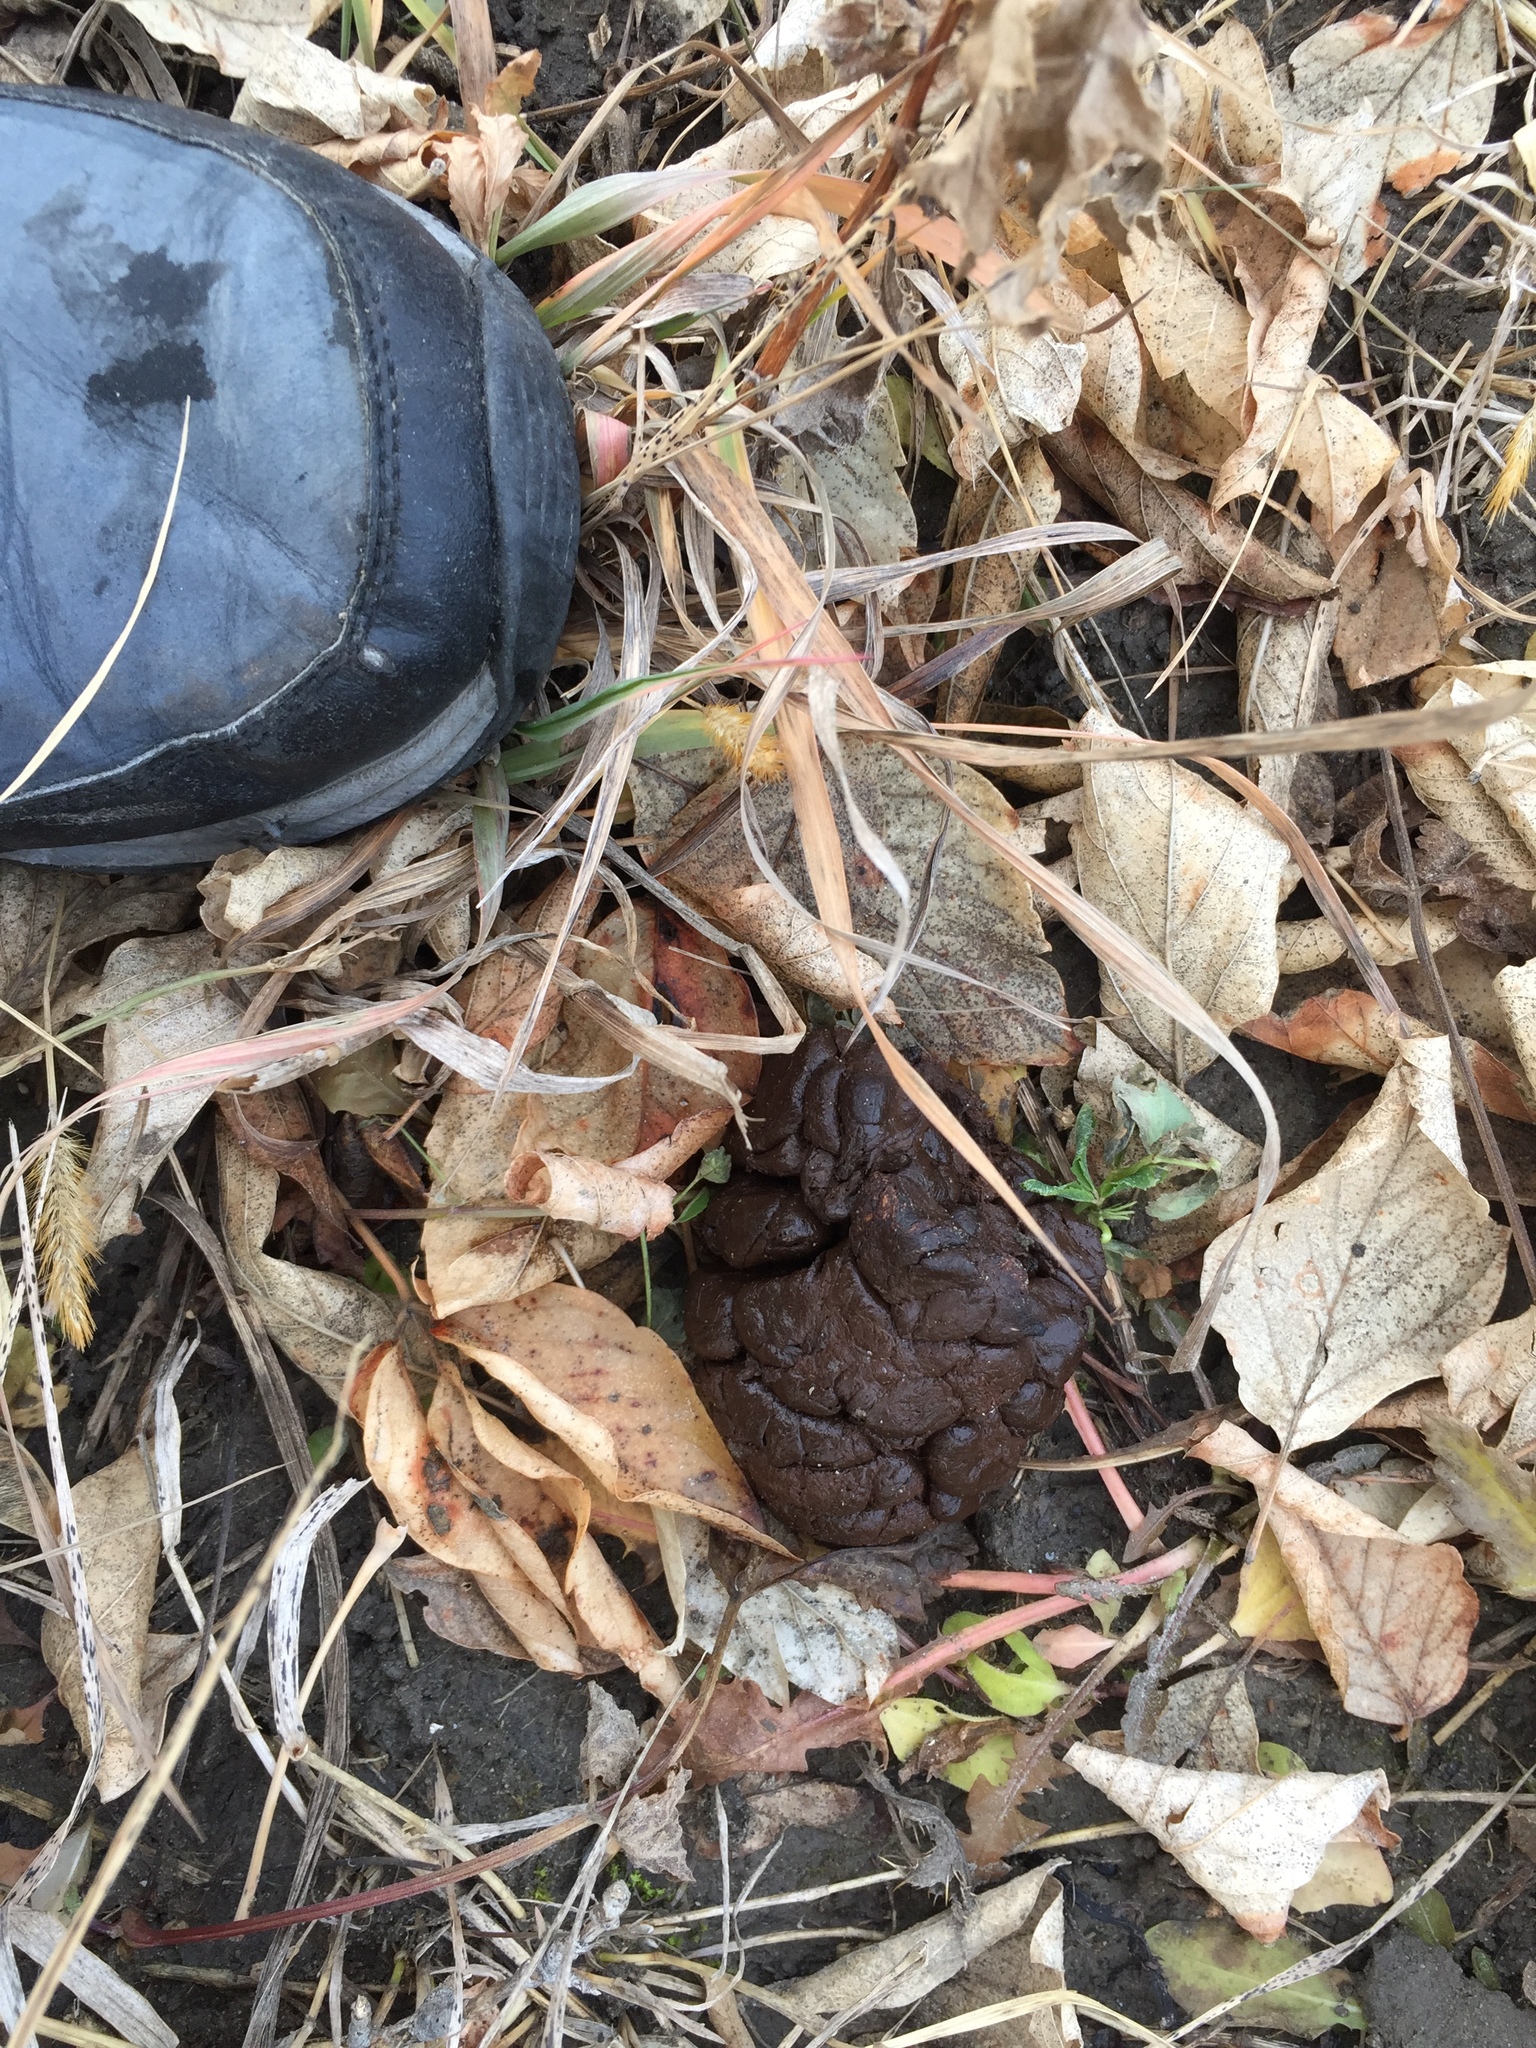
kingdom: Animalia
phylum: Chordata
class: Mammalia
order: Artiodactyla
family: Cervidae
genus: Odocoileus
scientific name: Odocoileus virginianus
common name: White-tailed deer
